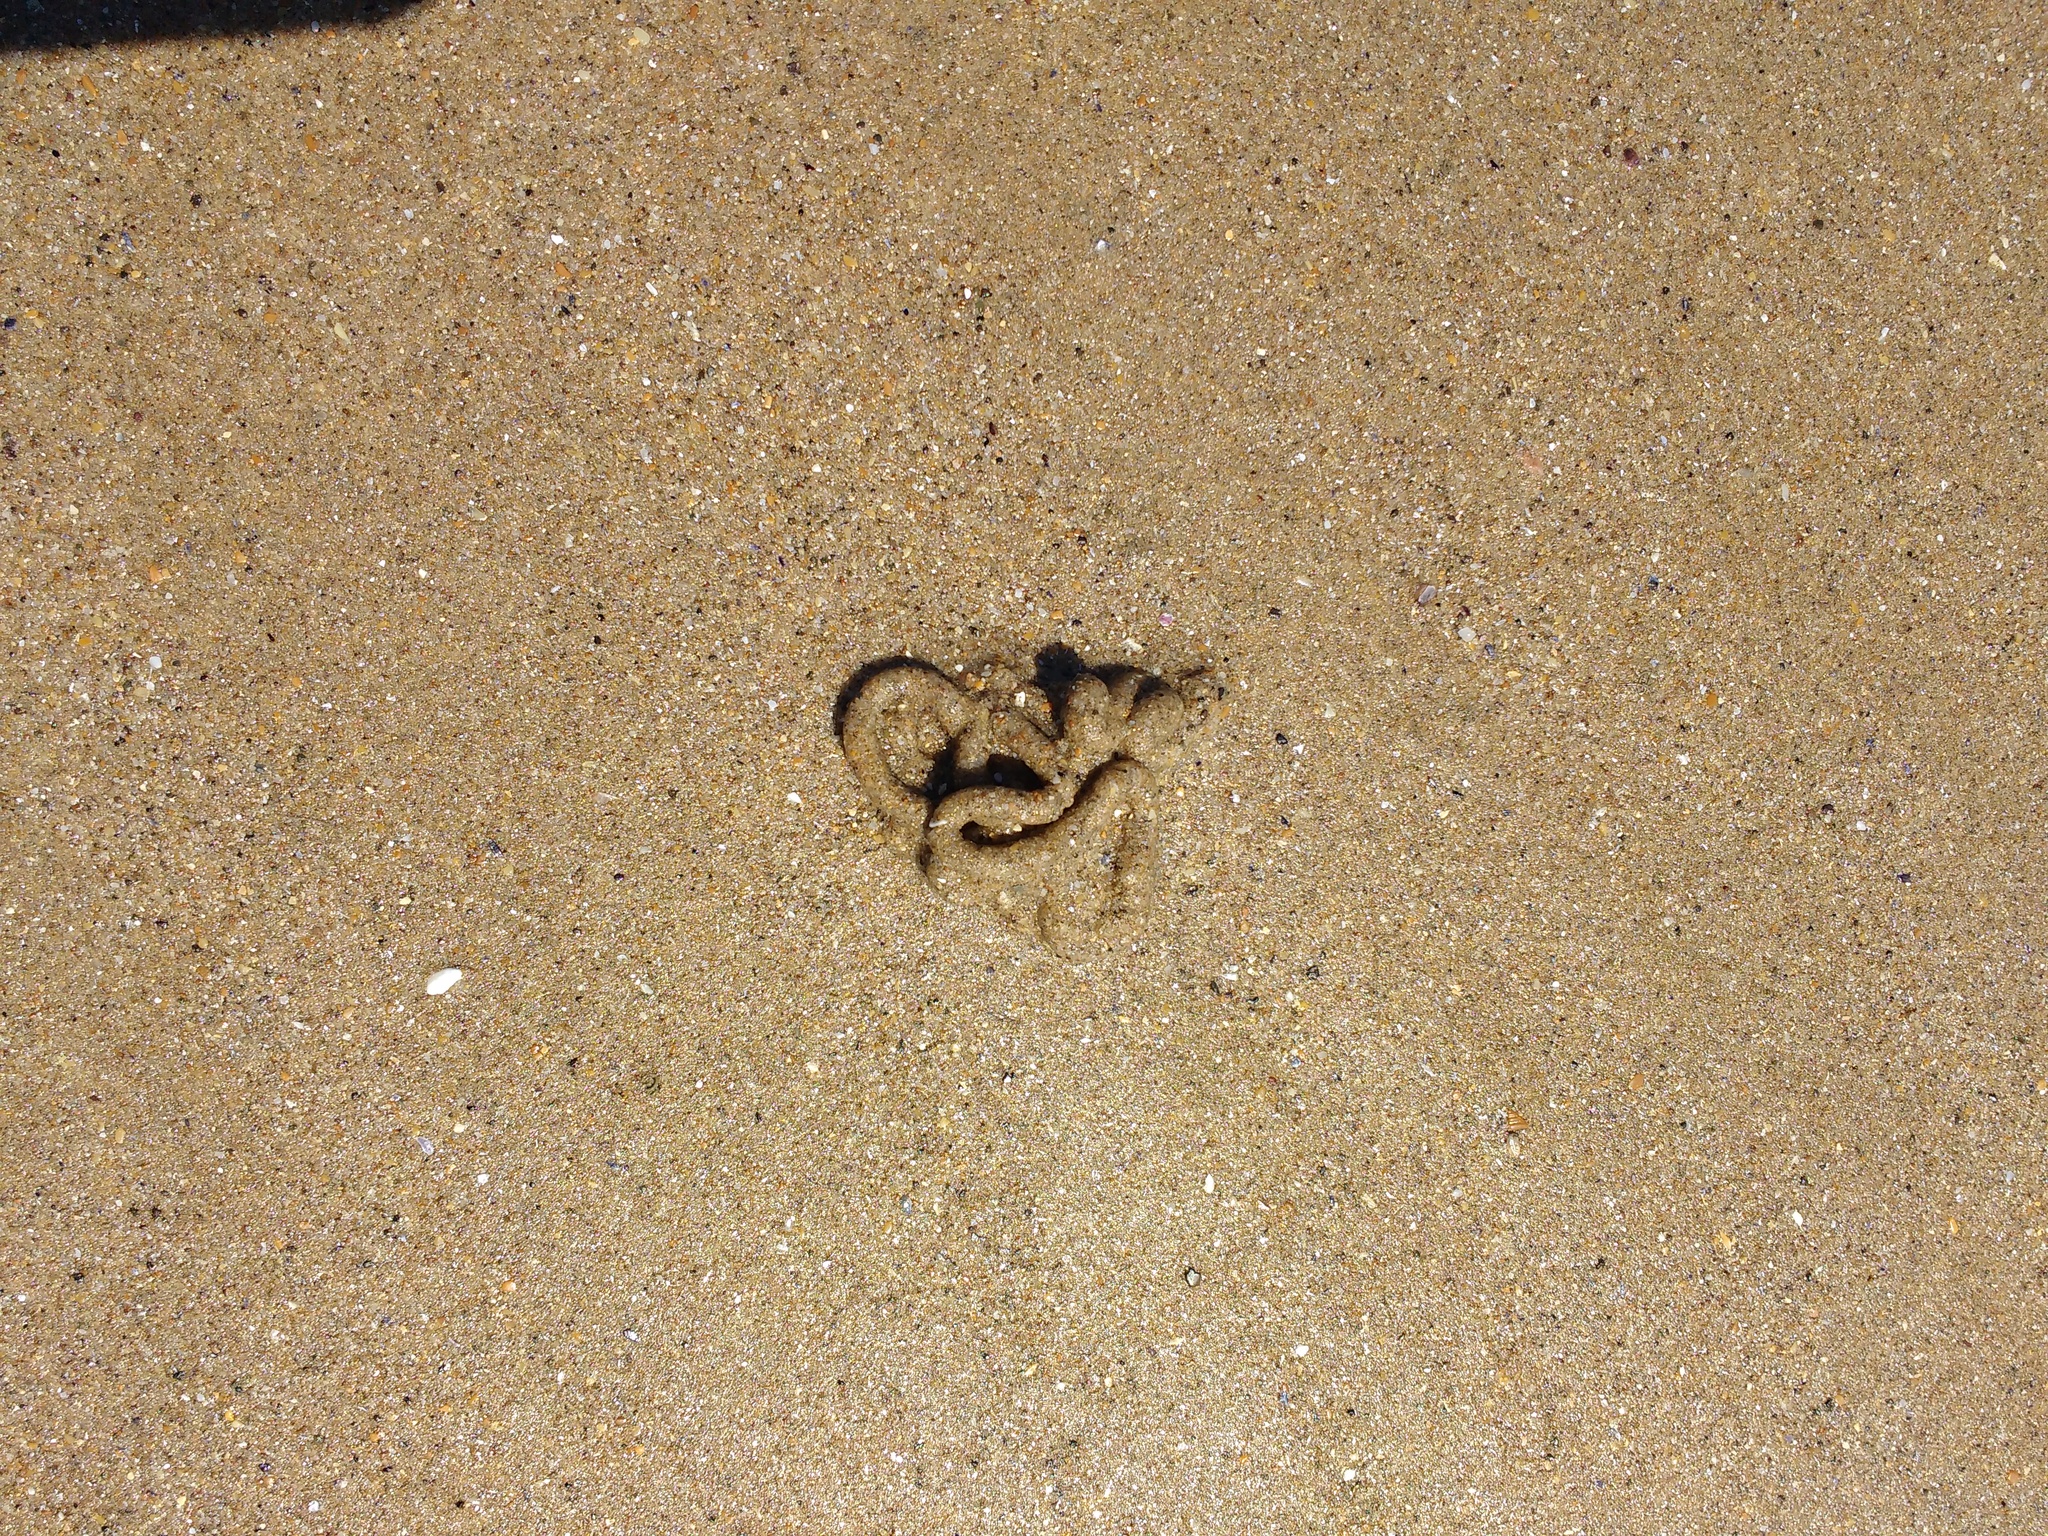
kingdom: Animalia
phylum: Annelida
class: Polychaeta
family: Arenicolidae
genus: Arenicola
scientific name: Arenicola marina
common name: Blow lugworm
